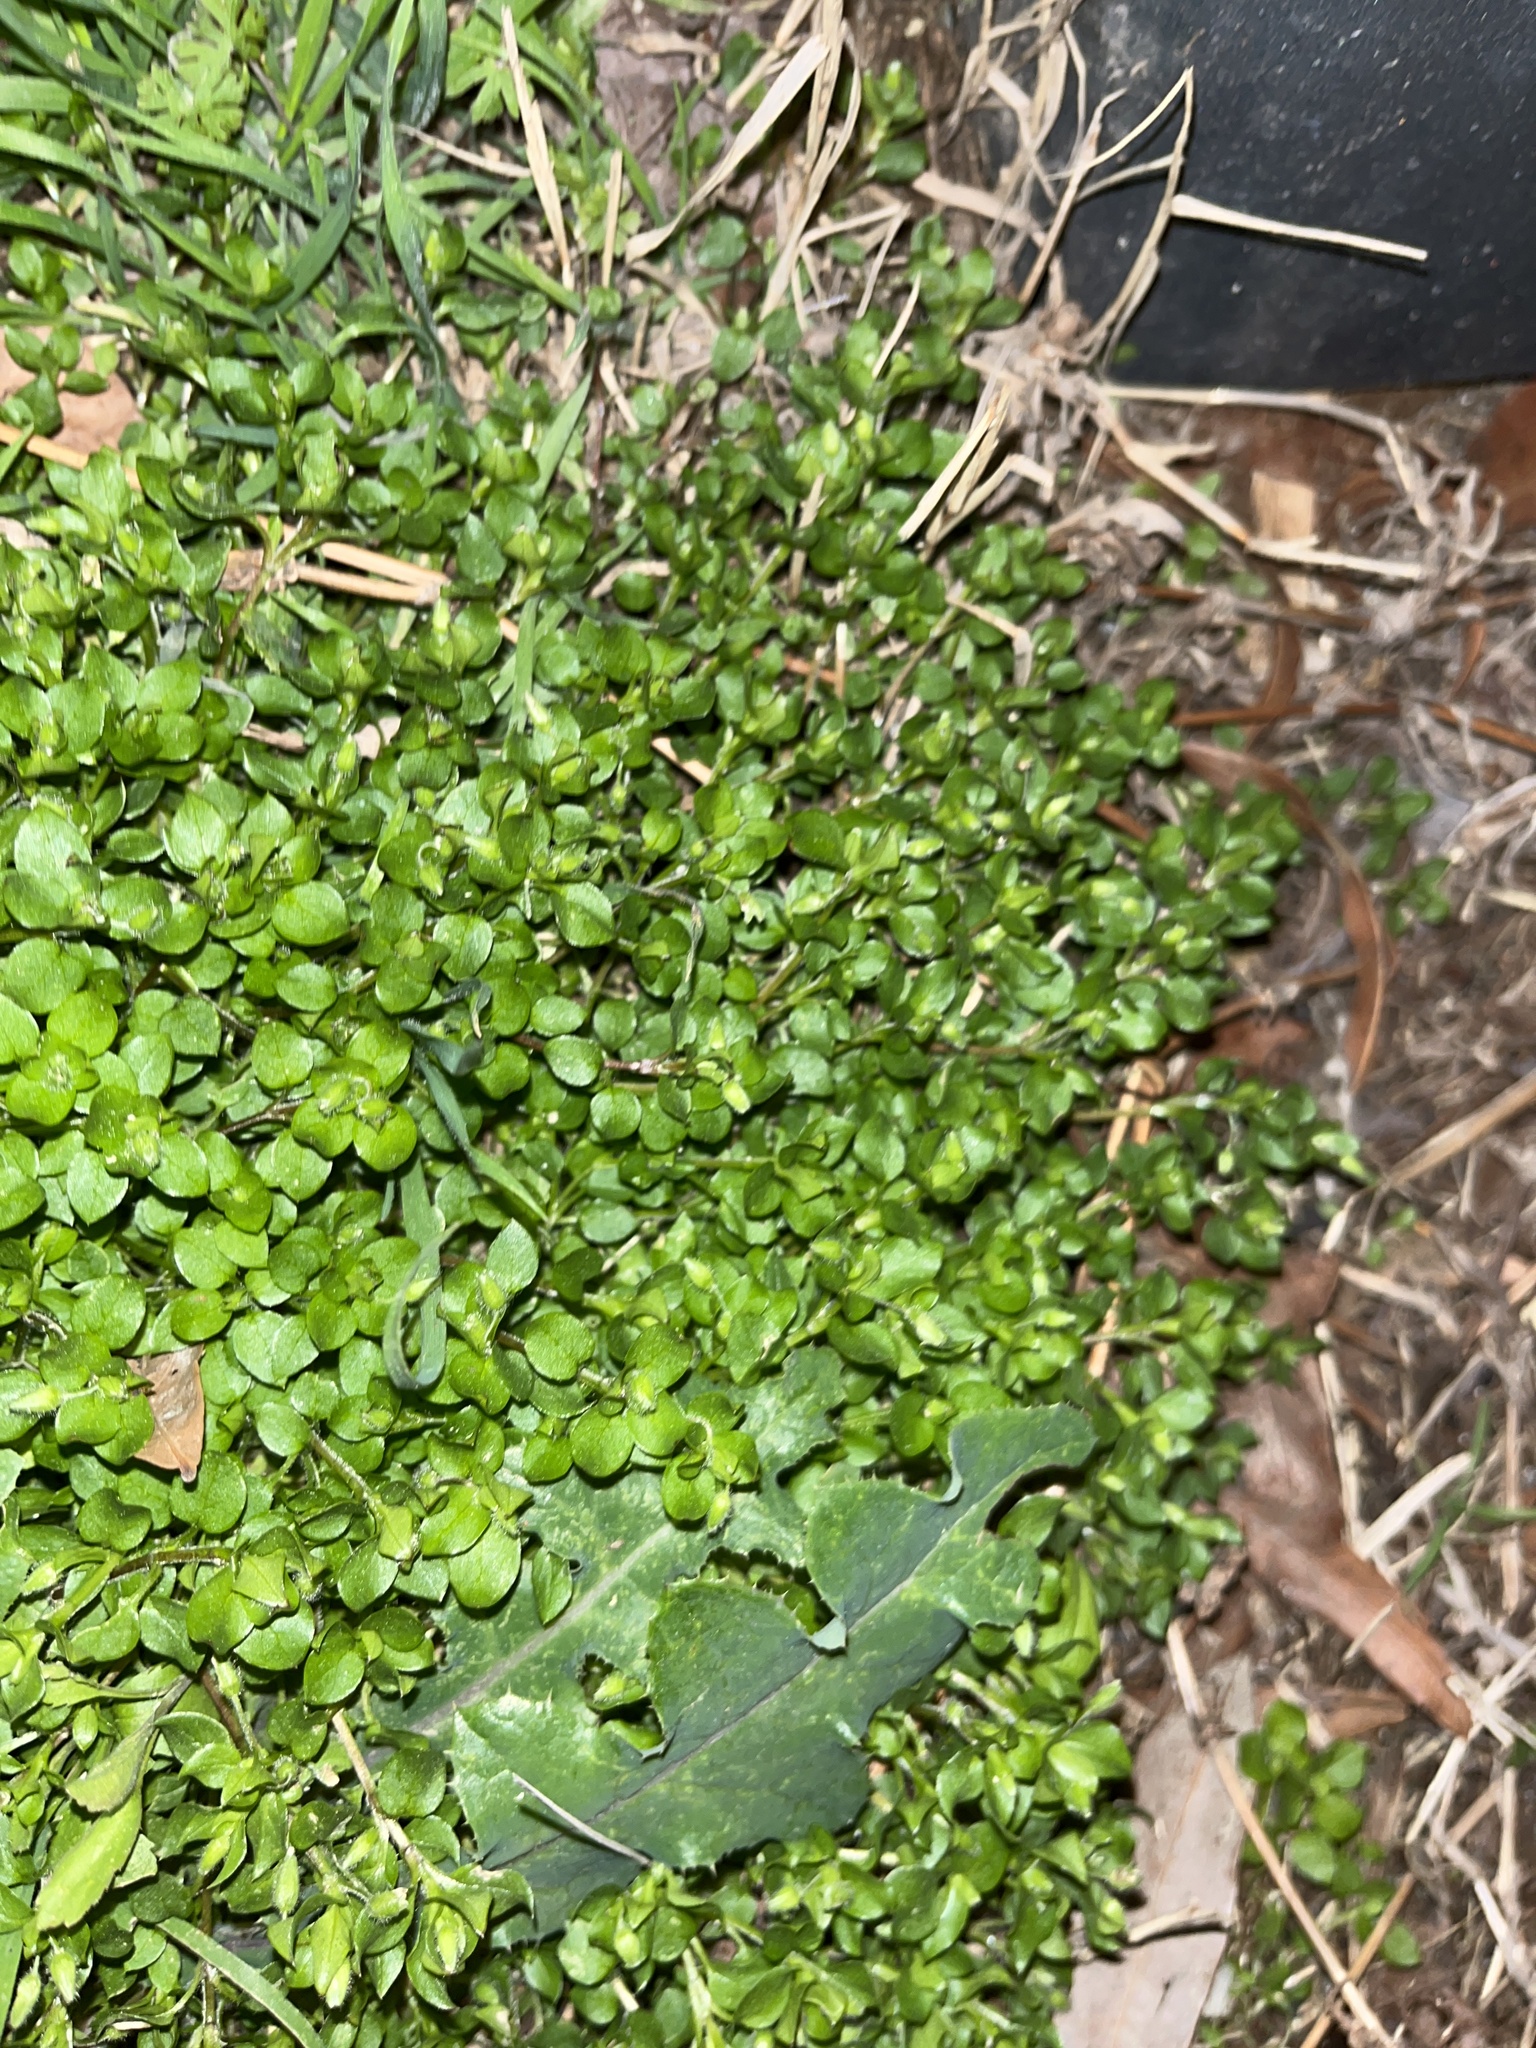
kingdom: Plantae
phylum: Tracheophyta
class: Magnoliopsida
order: Caryophyllales
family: Caryophyllaceae
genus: Stellaria
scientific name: Stellaria media
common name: Common chickweed
